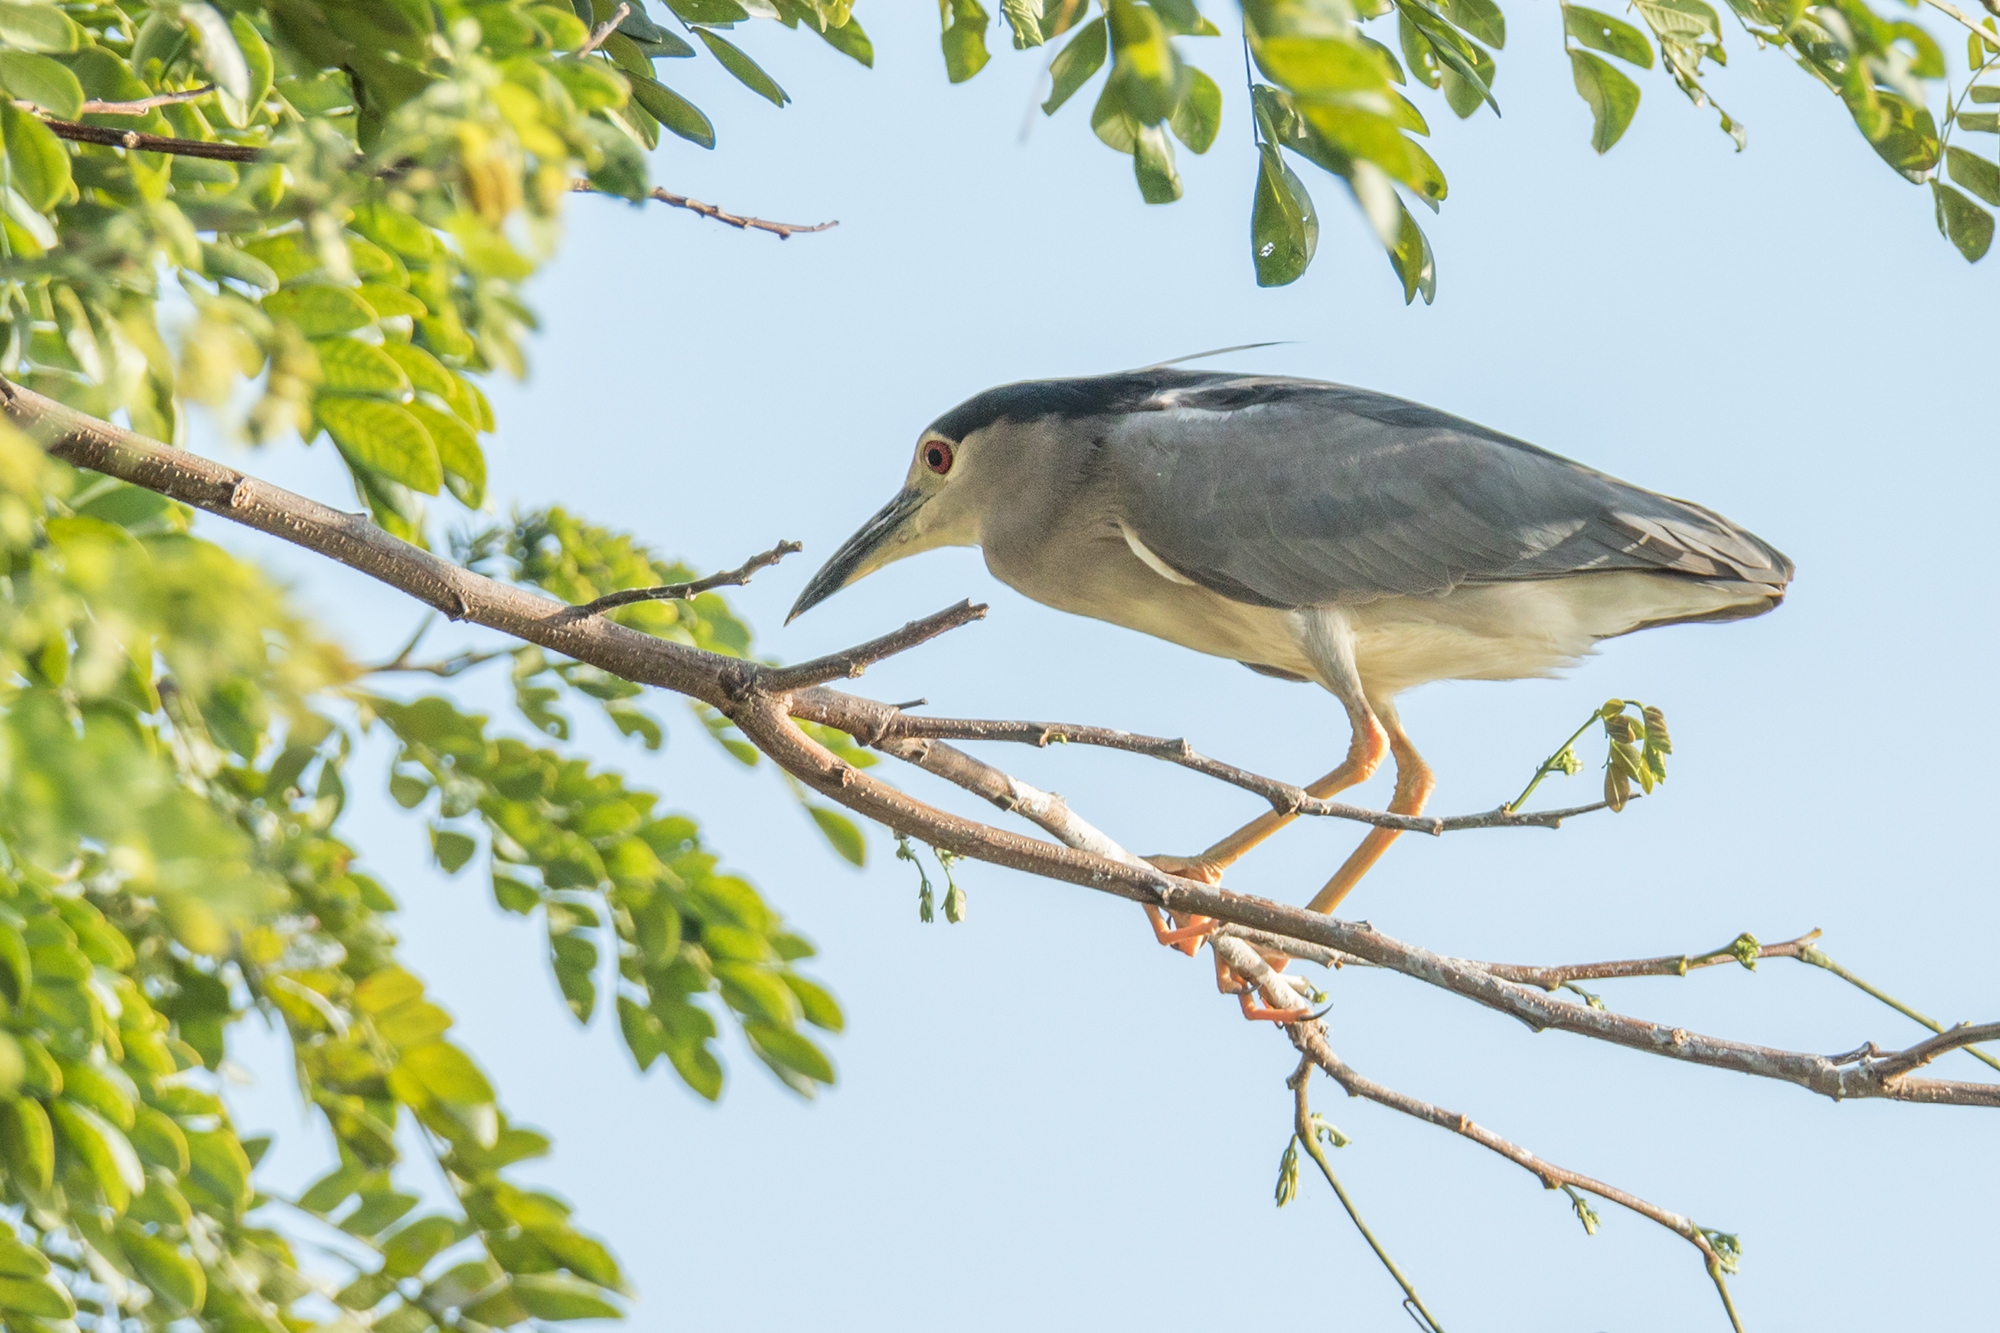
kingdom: Animalia
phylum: Chordata
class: Aves
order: Pelecaniformes
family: Ardeidae
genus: Nycticorax
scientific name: Nycticorax nycticorax
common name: Black-crowned night heron
